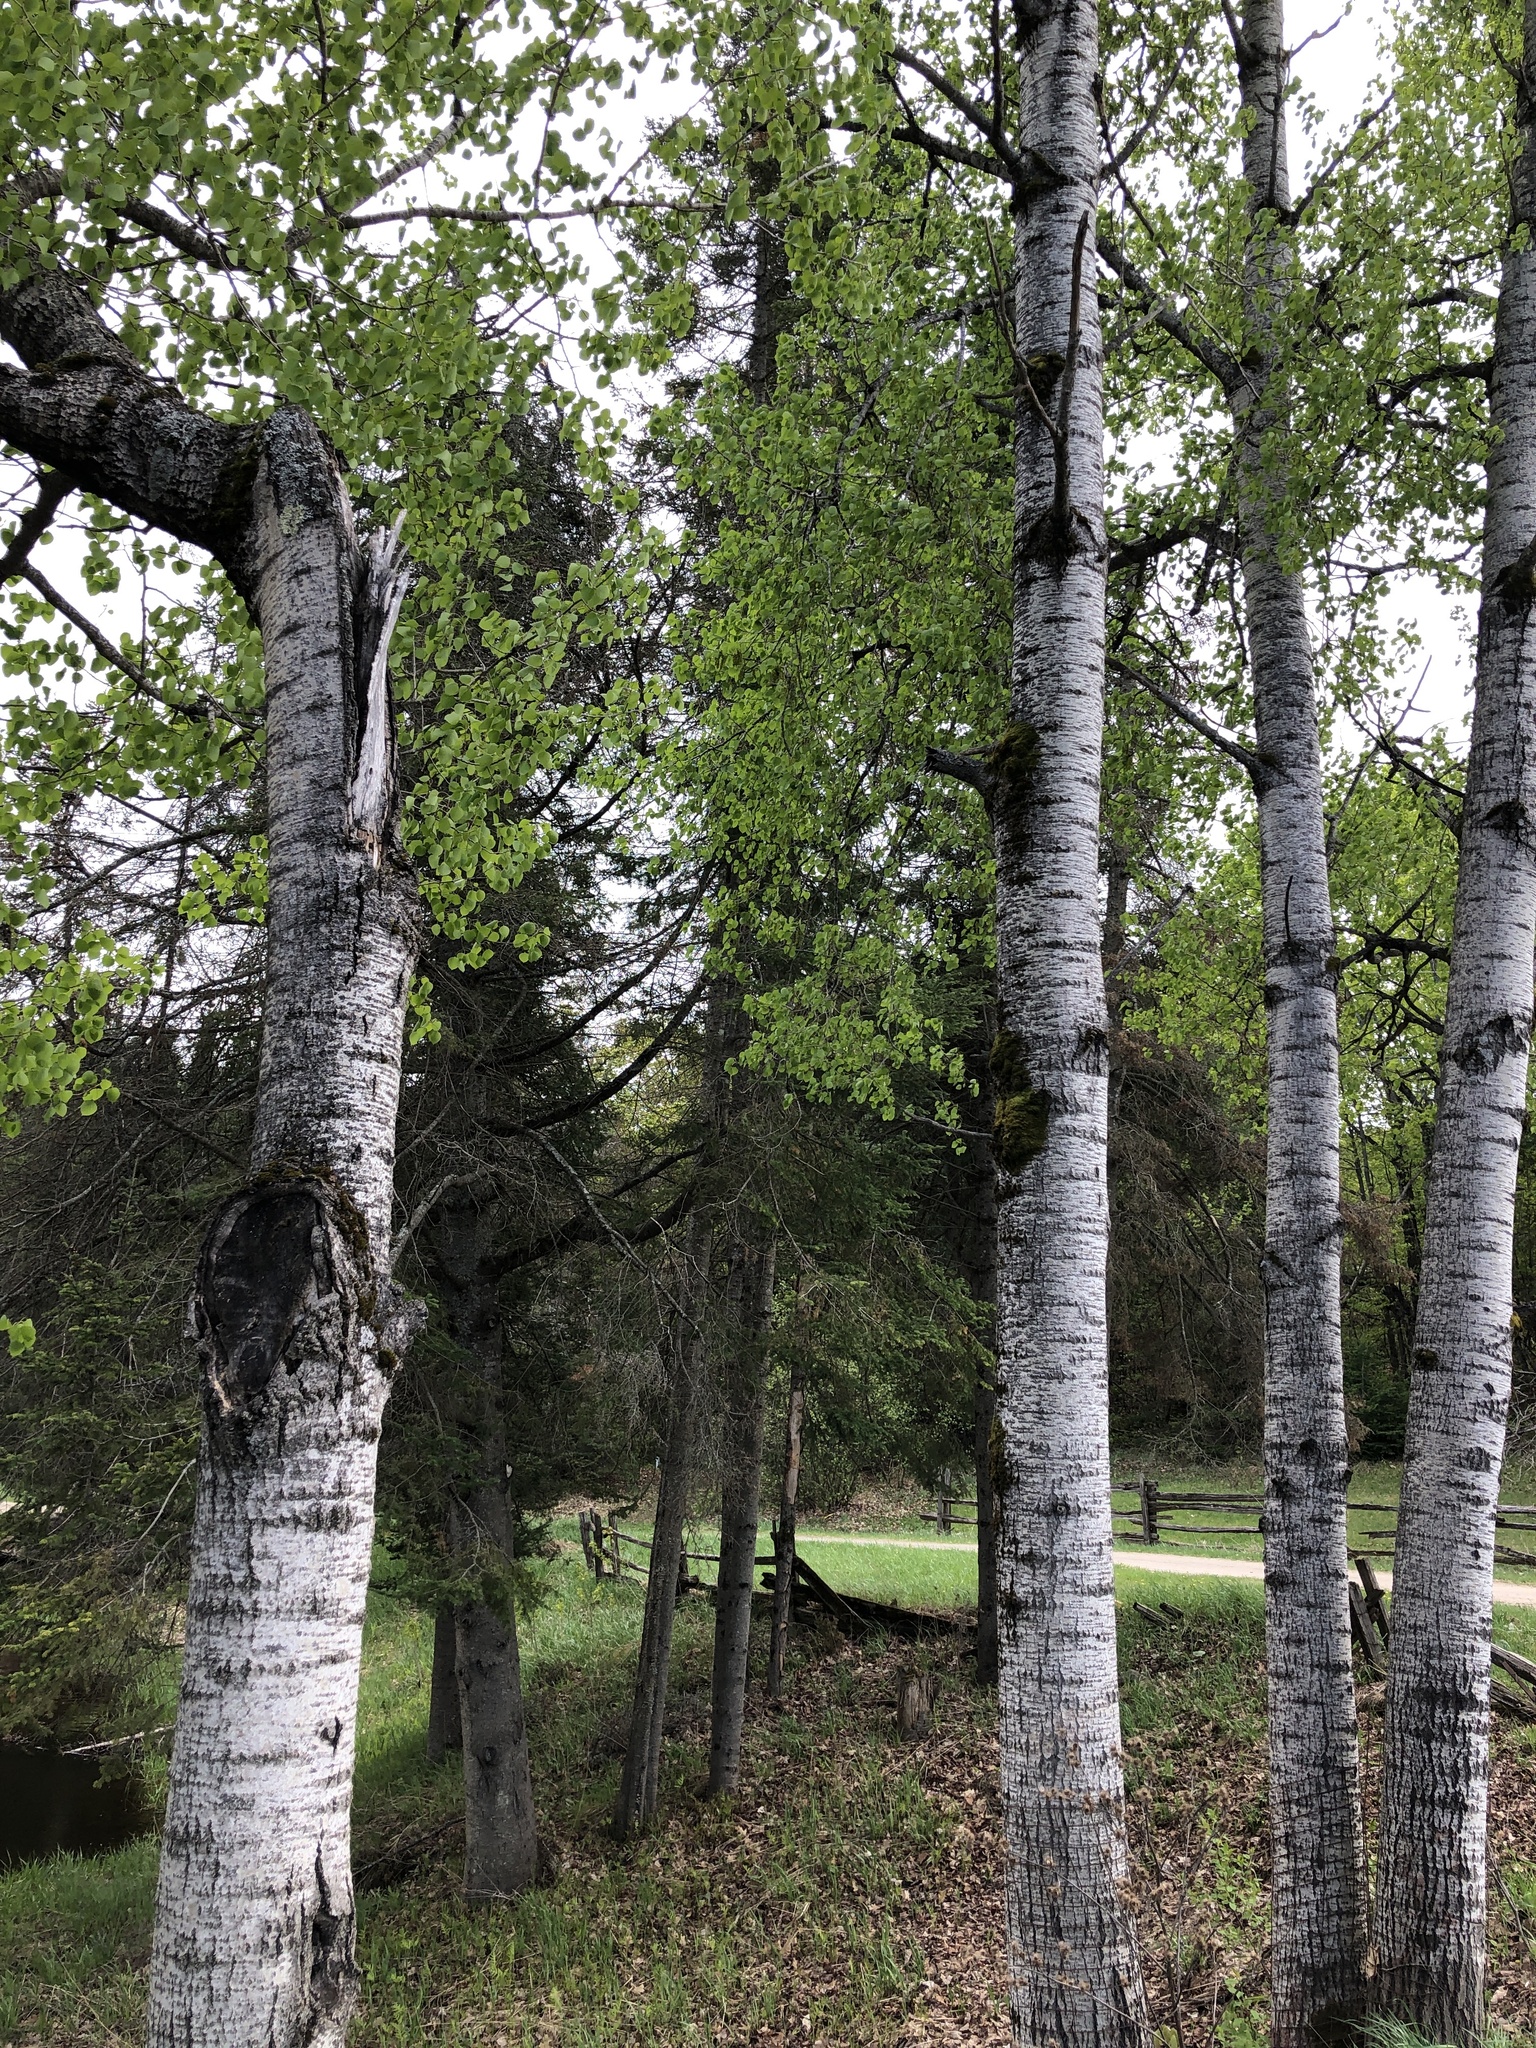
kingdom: Plantae
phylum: Tracheophyta
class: Magnoliopsida
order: Malpighiales
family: Salicaceae
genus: Populus
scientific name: Populus tremuloides
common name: Quaking aspen
